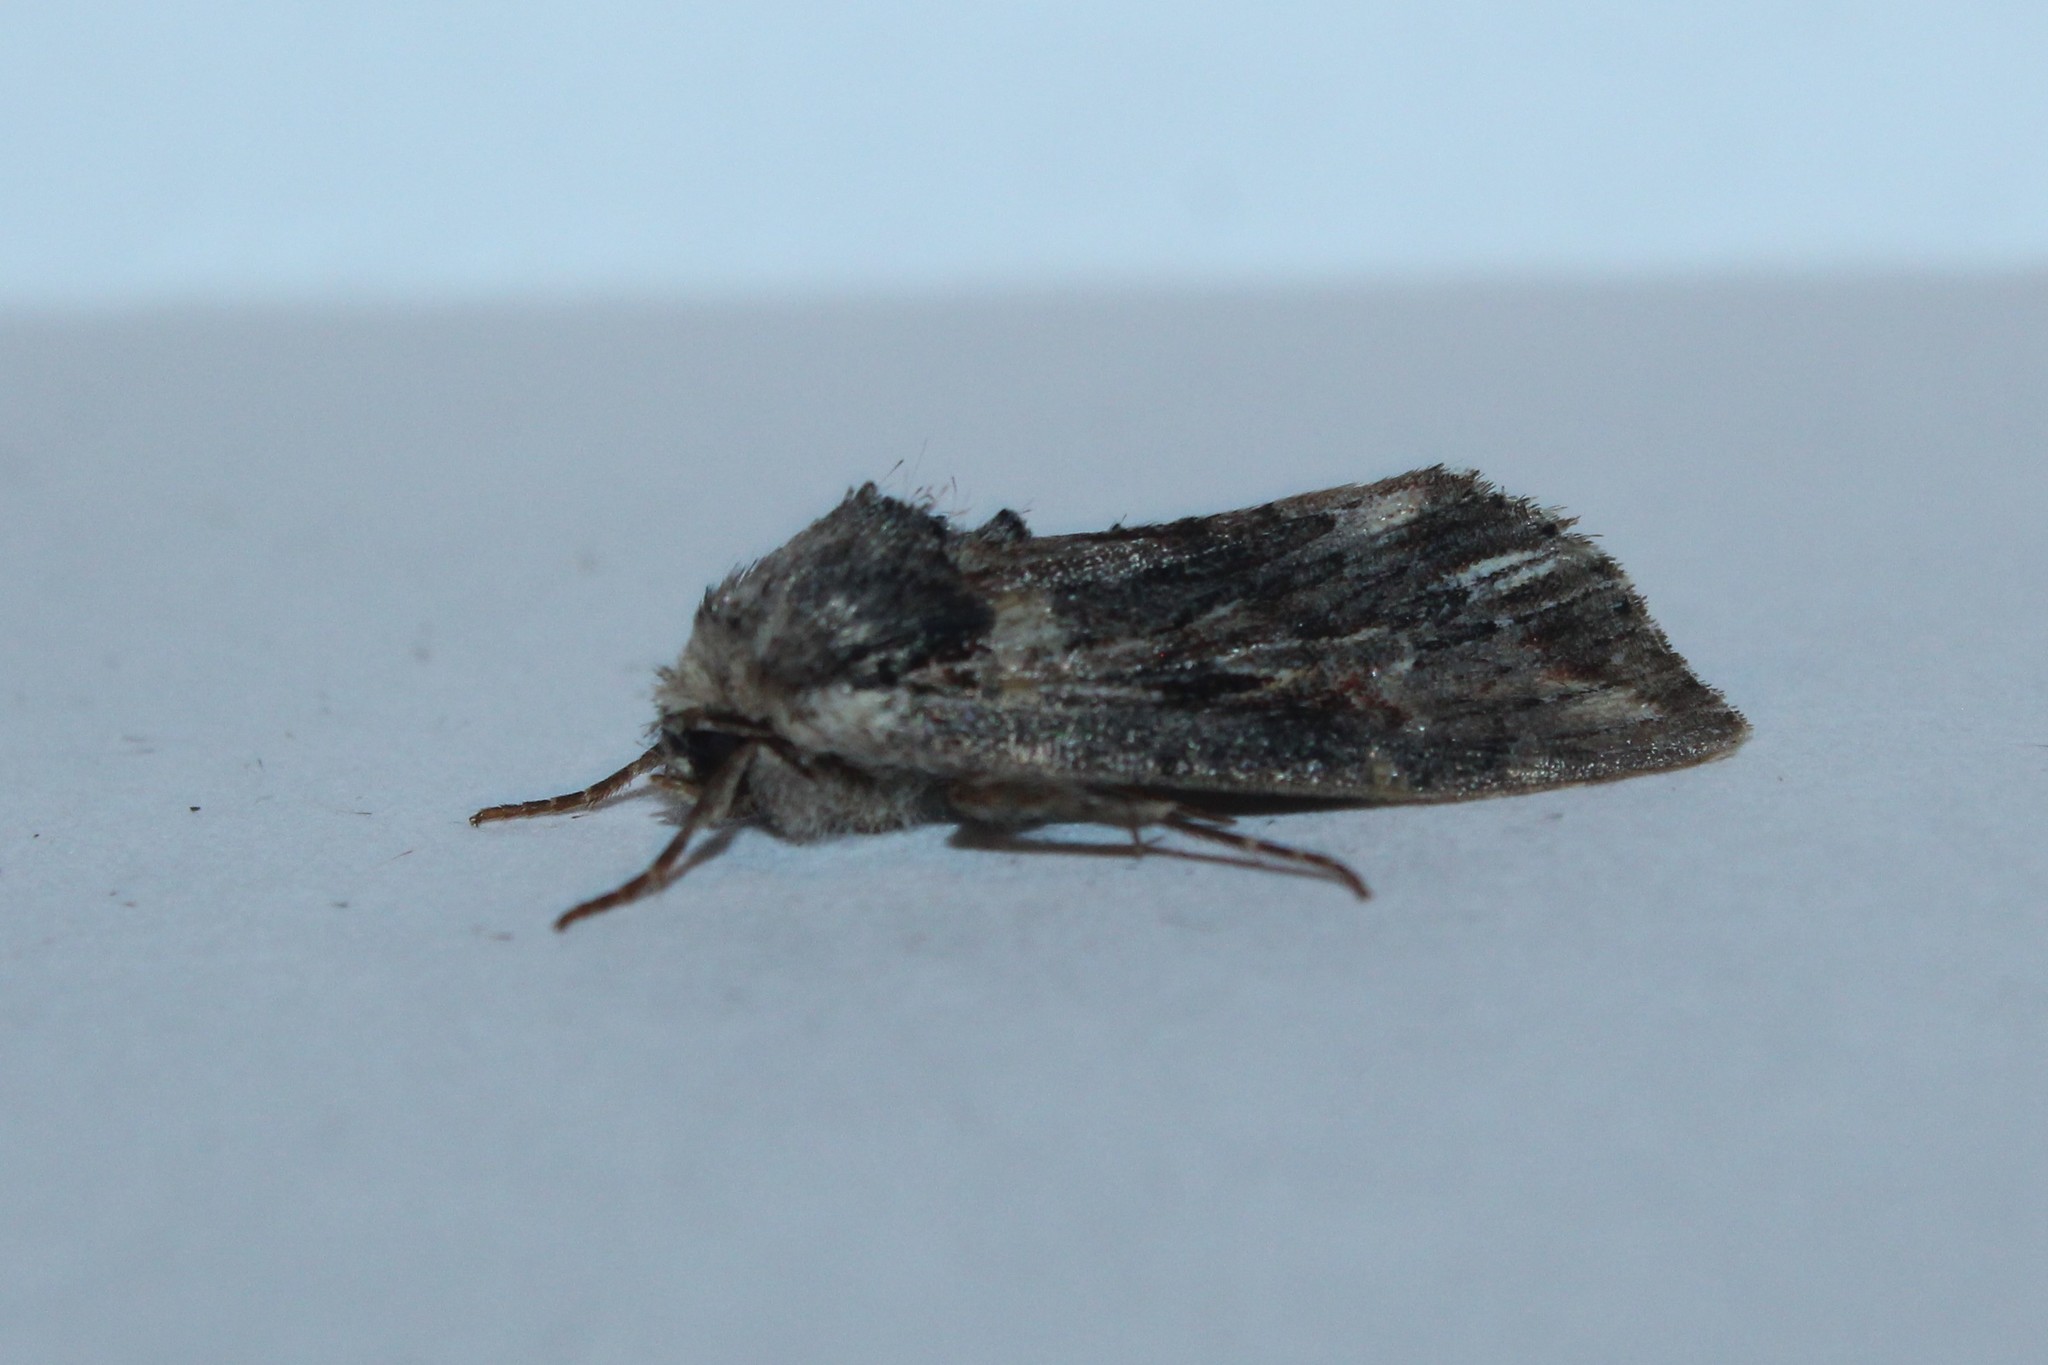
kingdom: Animalia
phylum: Arthropoda
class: Insecta
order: Lepidoptera
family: Noctuidae
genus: Achatia
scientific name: Achatia evicta
